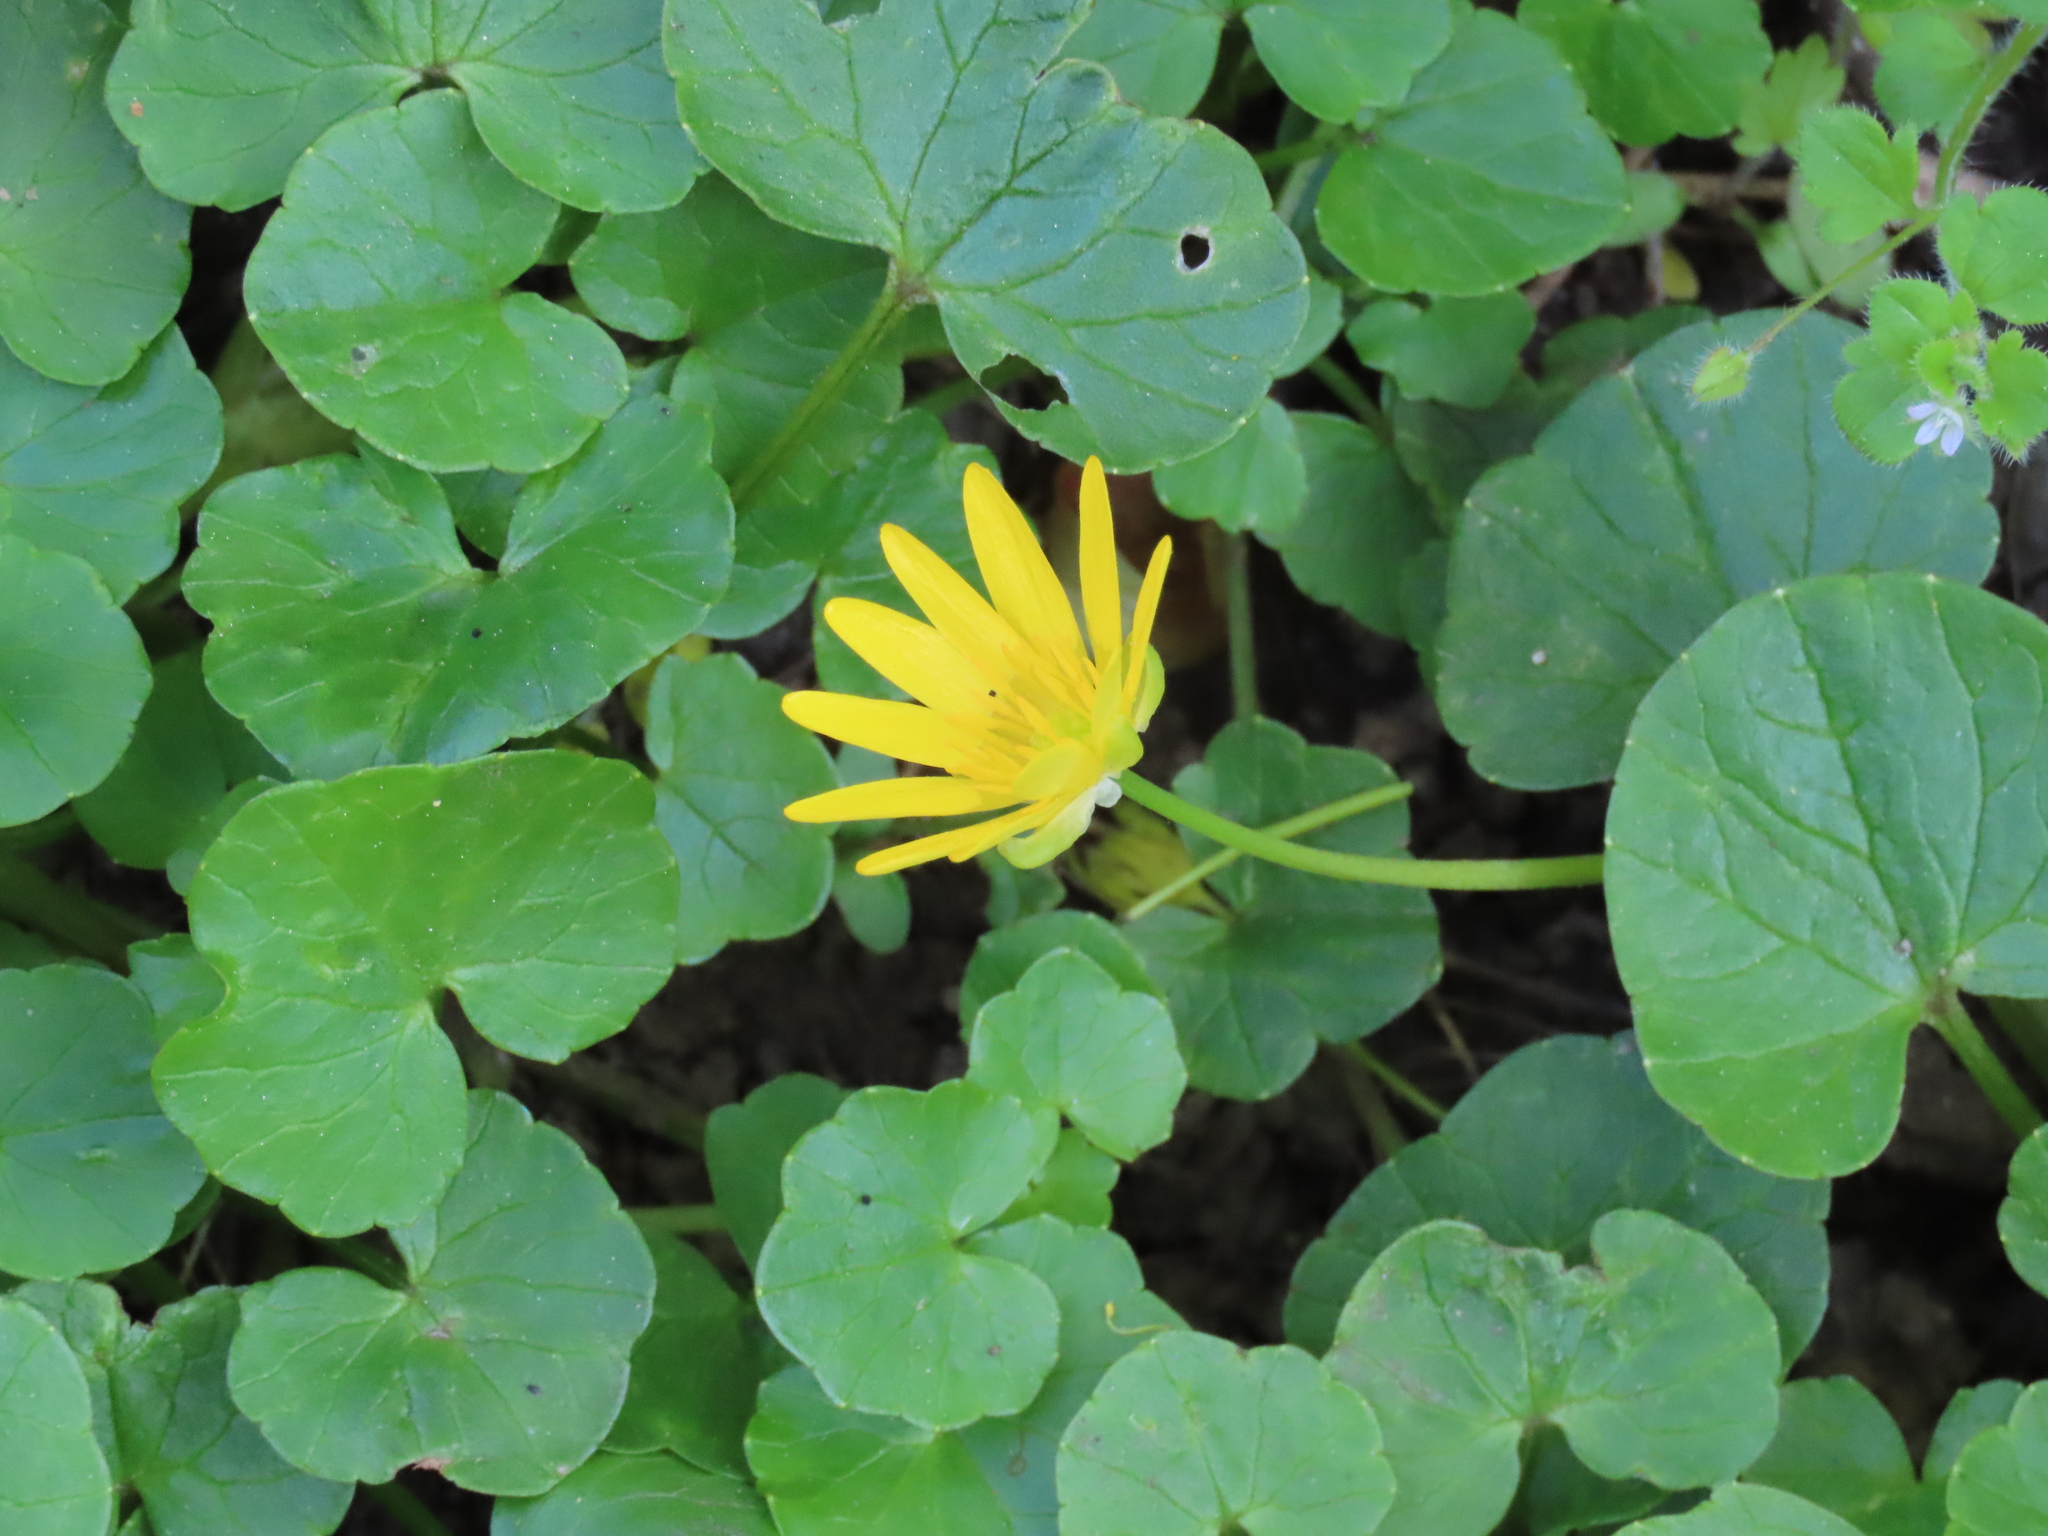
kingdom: Plantae
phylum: Tracheophyta
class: Magnoliopsida
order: Ranunculales
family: Ranunculaceae
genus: Ficaria
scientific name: Ficaria verna
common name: Lesser celandine
